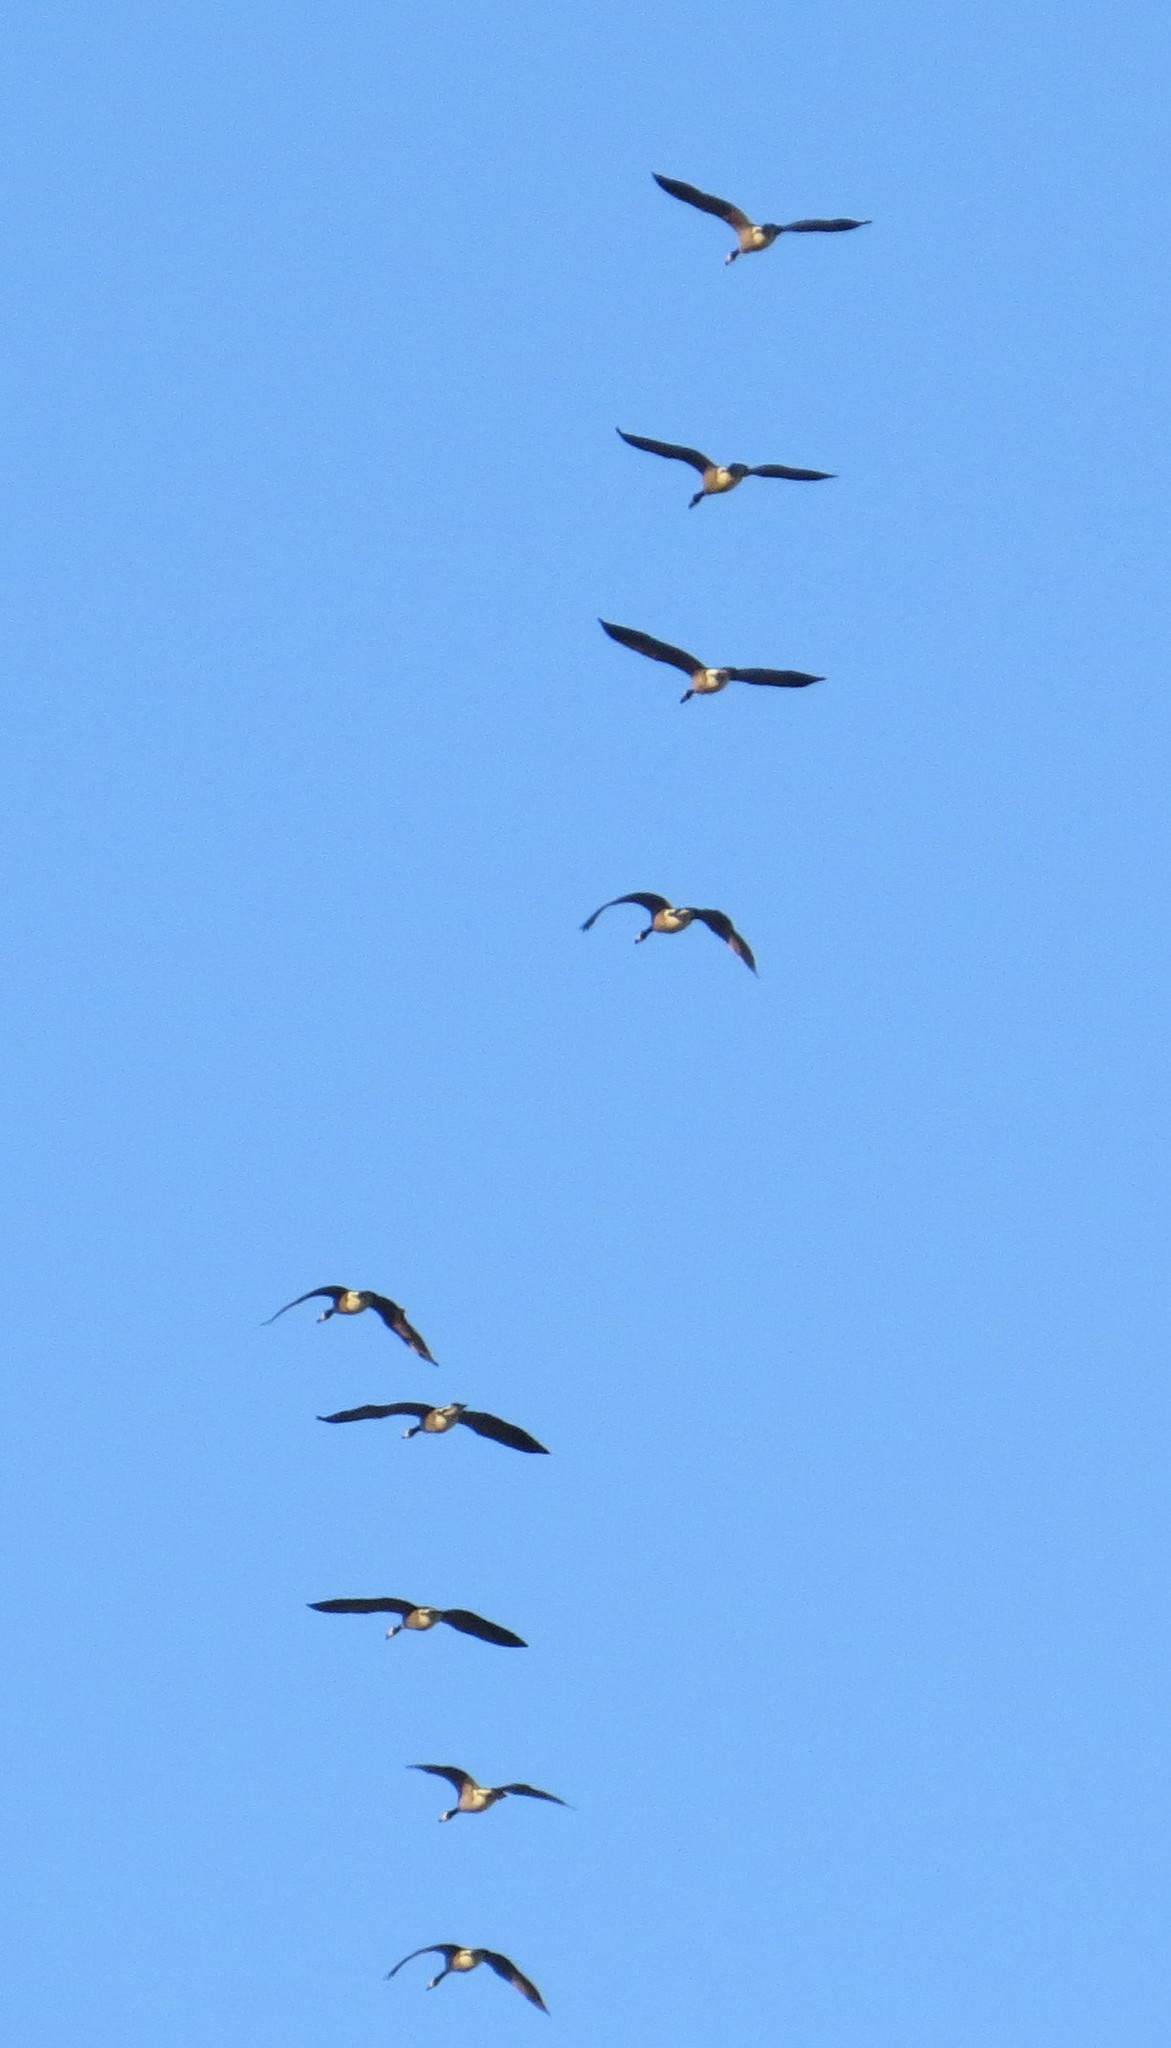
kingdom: Animalia
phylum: Chordata
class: Aves
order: Anseriformes
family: Anatidae
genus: Branta
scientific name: Branta canadensis
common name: Canada goose
